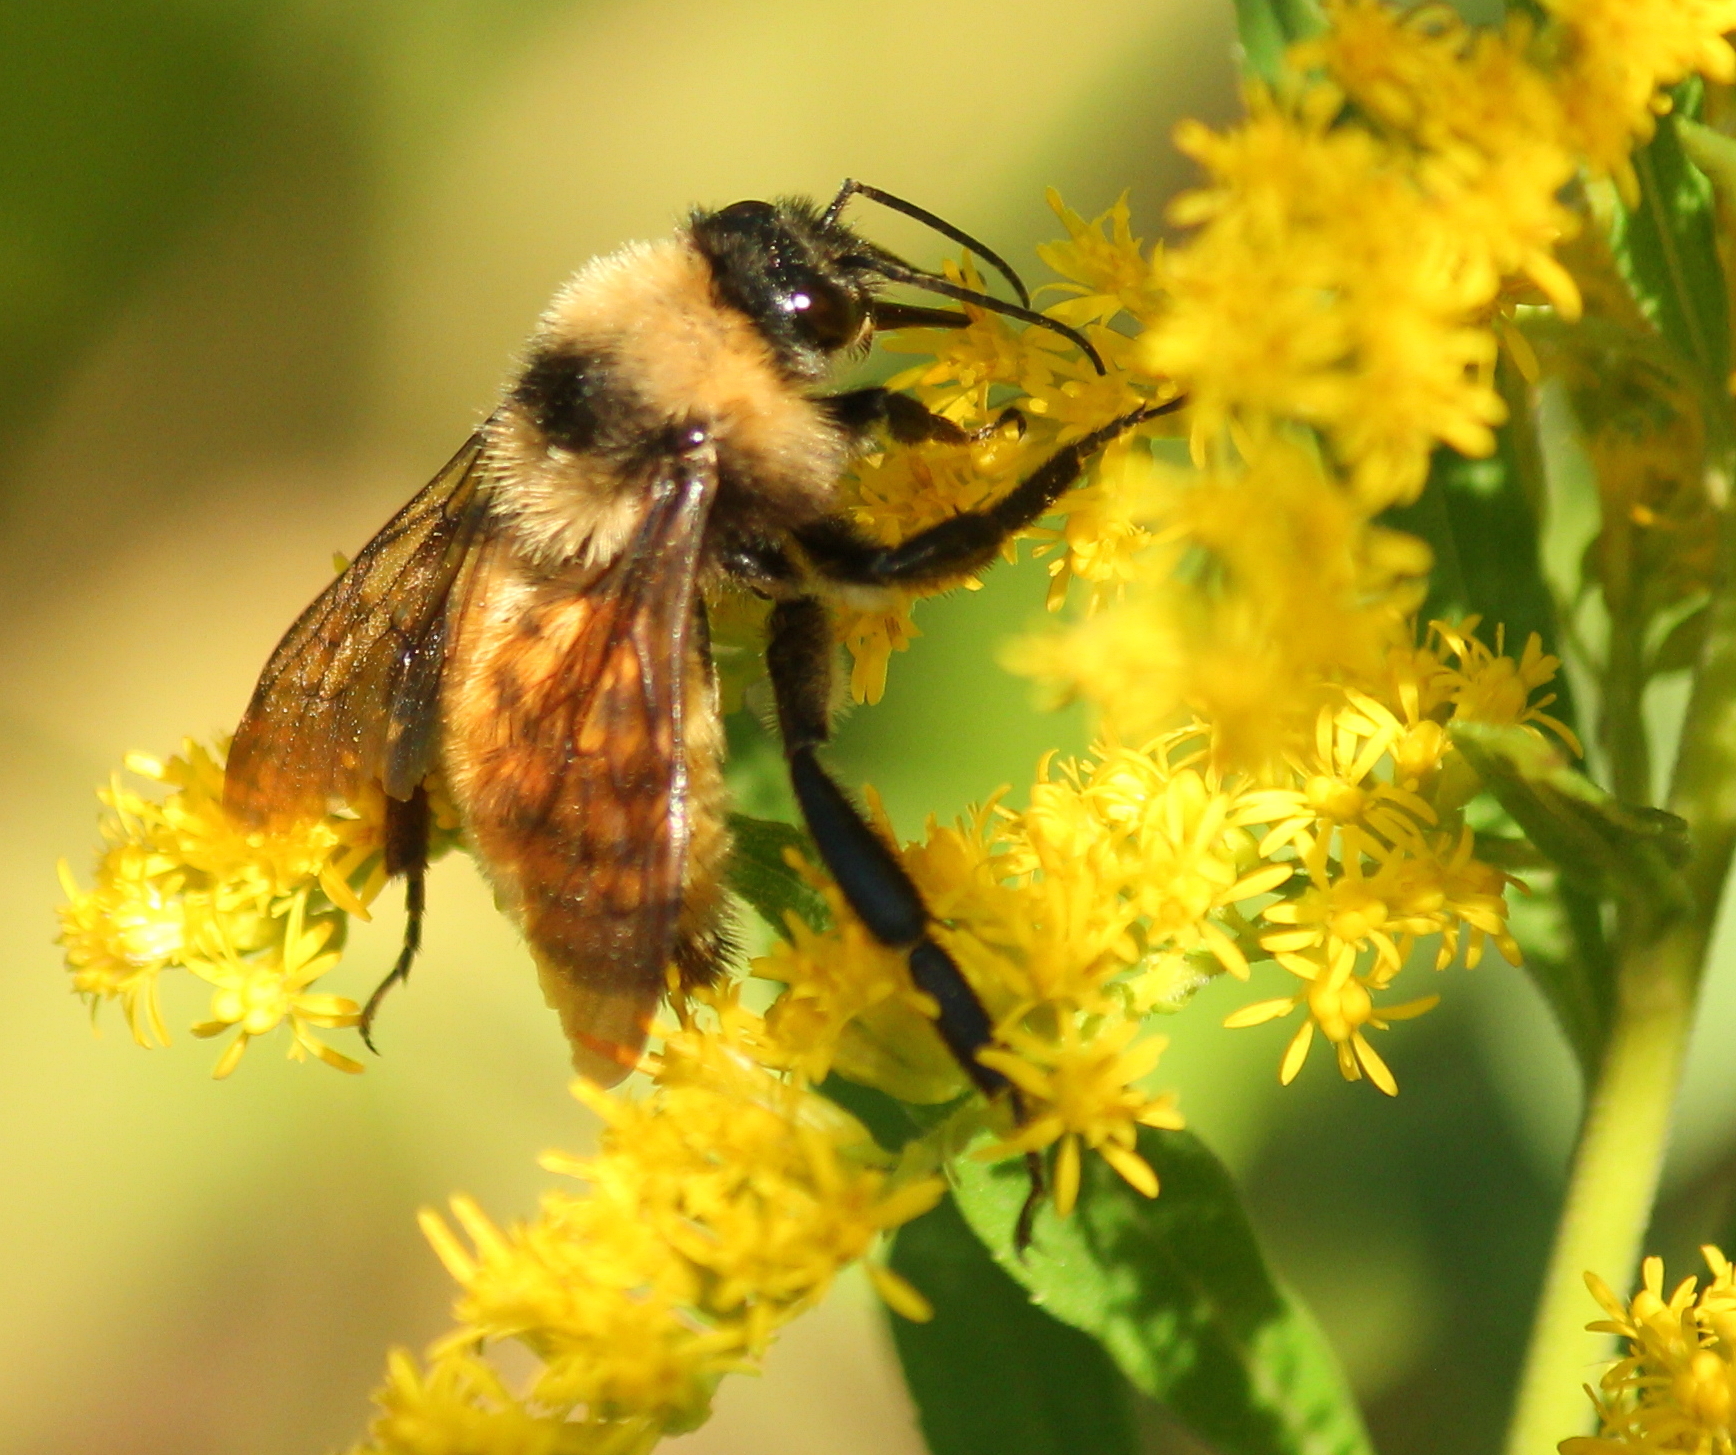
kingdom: Animalia
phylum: Arthropoda
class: Insecta
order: Hymenoptera
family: Apidae
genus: Bombus
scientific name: Bombus pensylvanicus
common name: Bumble bee
